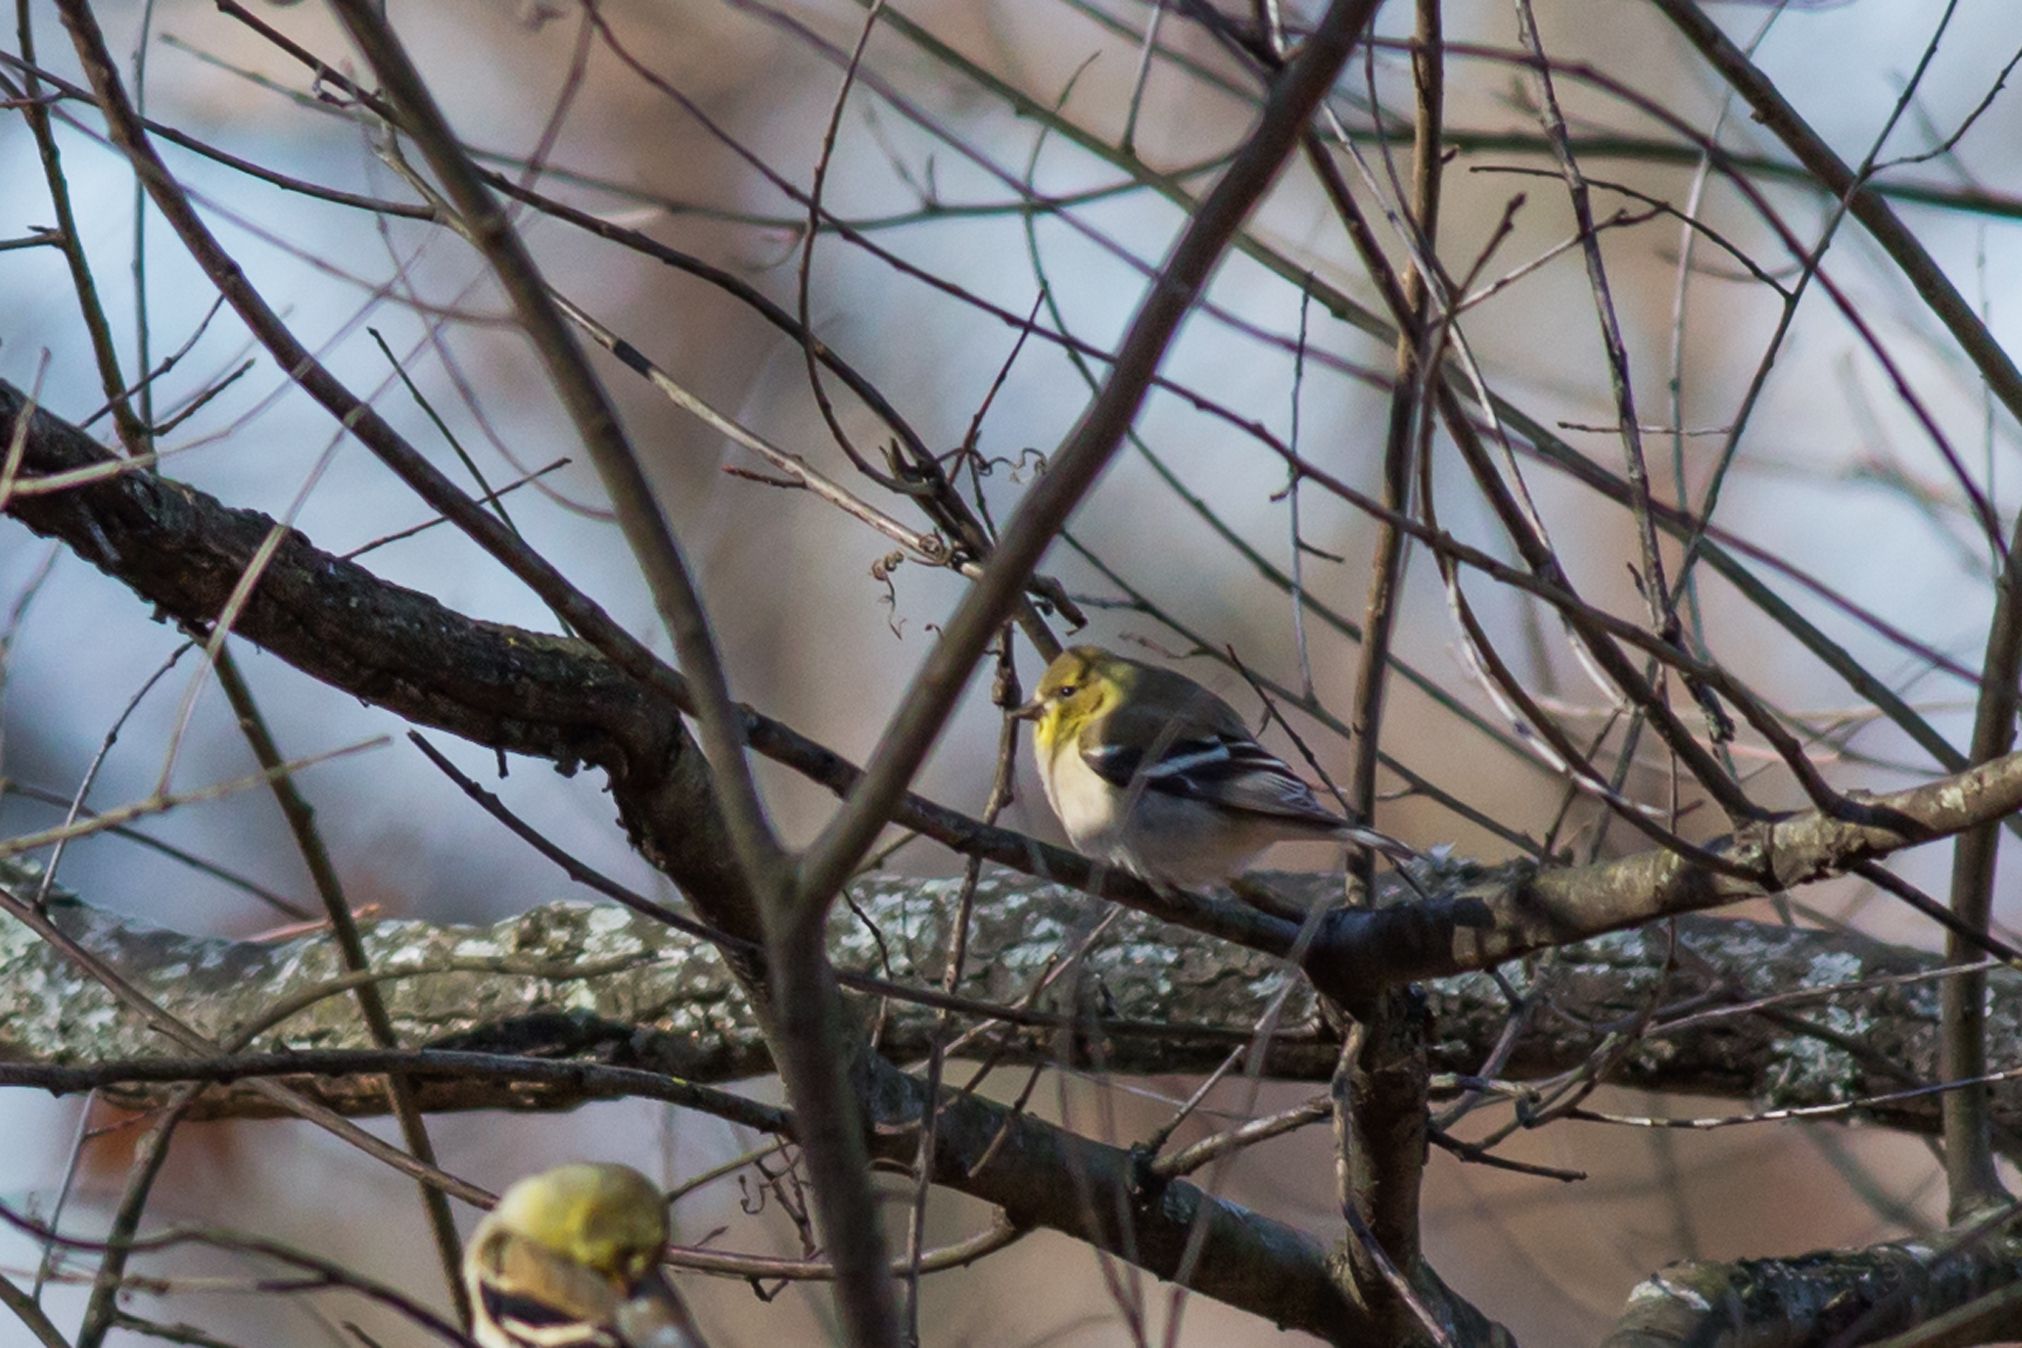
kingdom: Animalia
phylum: Chordata
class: Aves
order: Passeriformes
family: Fringillidae
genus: Spinus
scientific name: Spinus tristis
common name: American goldfinch
